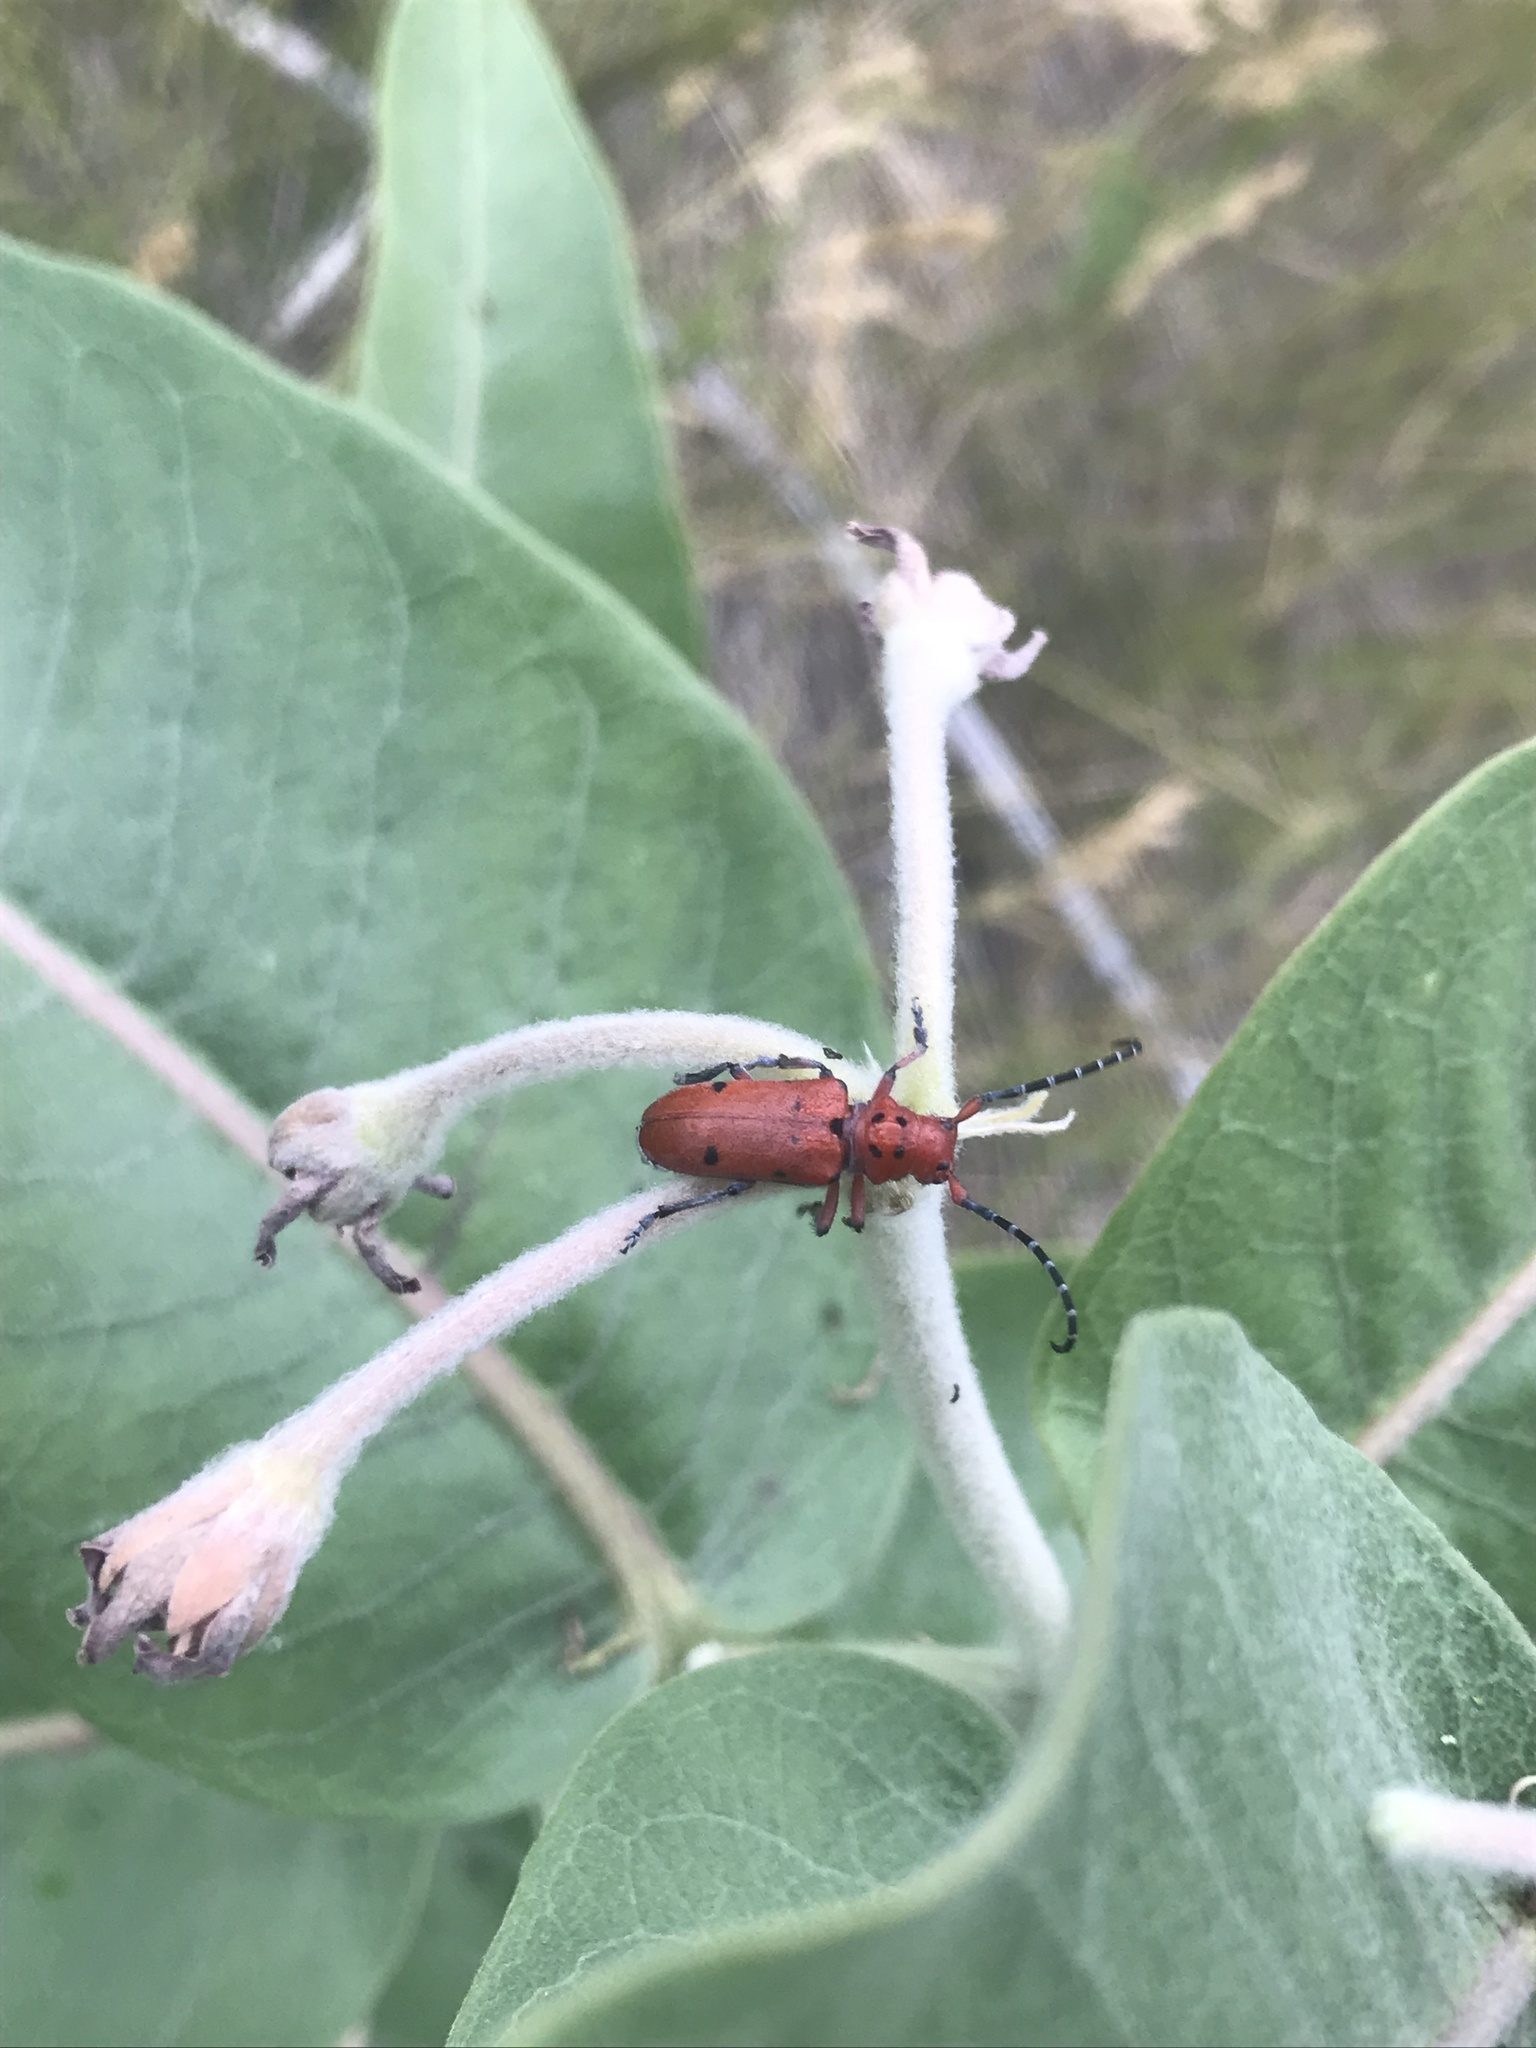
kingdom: Animalia
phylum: Arthropoda
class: Insecta
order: Coleoptera
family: Cerambycidae
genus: Tetraopes
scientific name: Tetraopes femoratus
